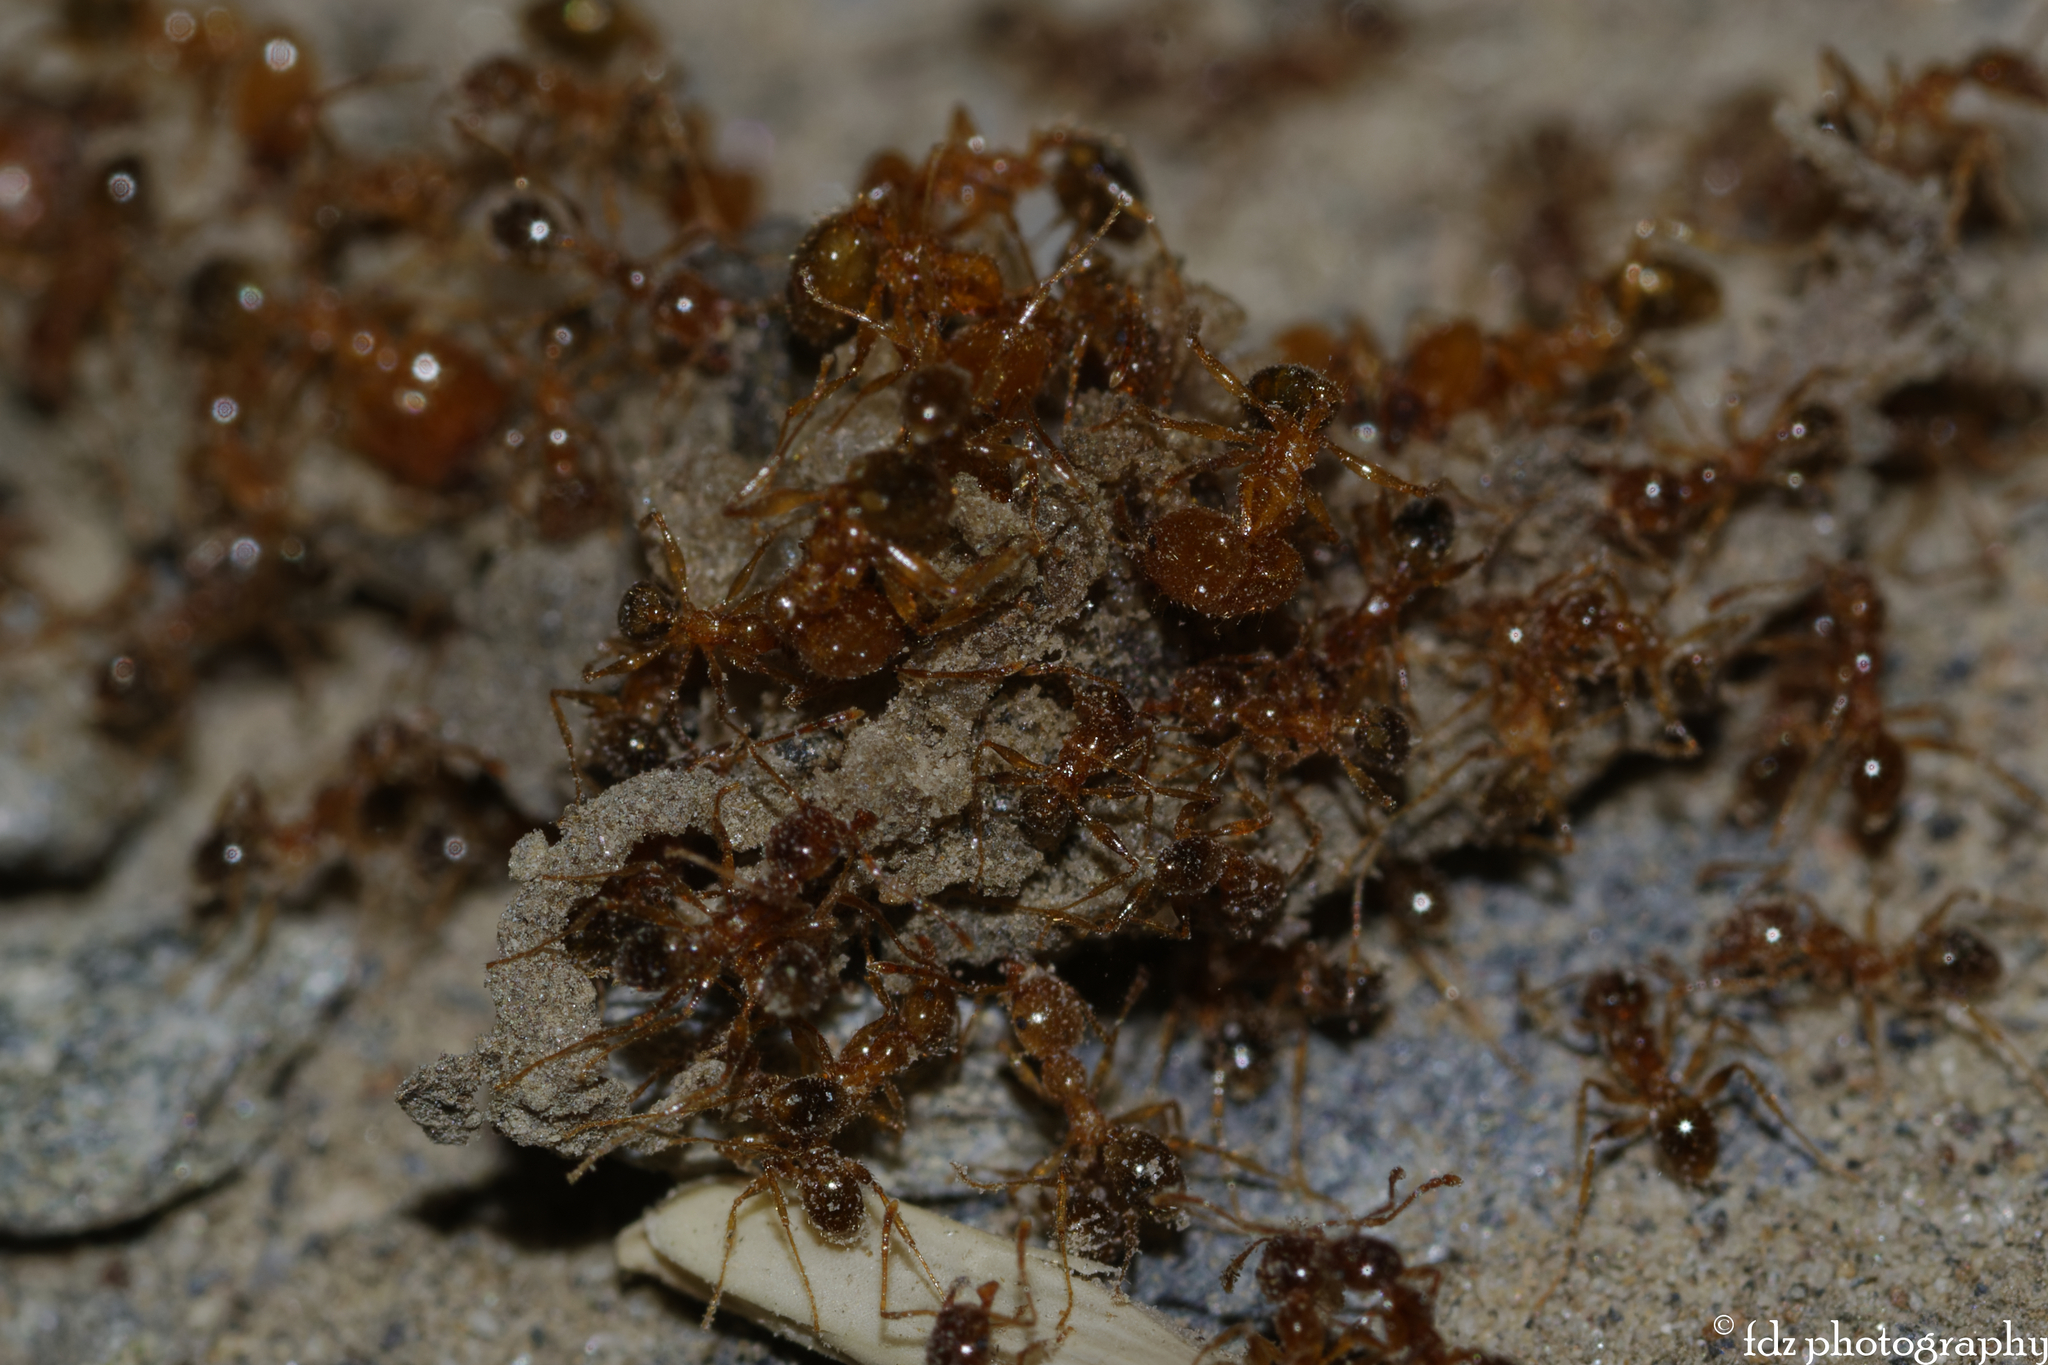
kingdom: Animalia
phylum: Arthropoda
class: Insecta
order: Hymenoptera
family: Formicidae
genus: Pheidole
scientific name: Pheidole pallidula
